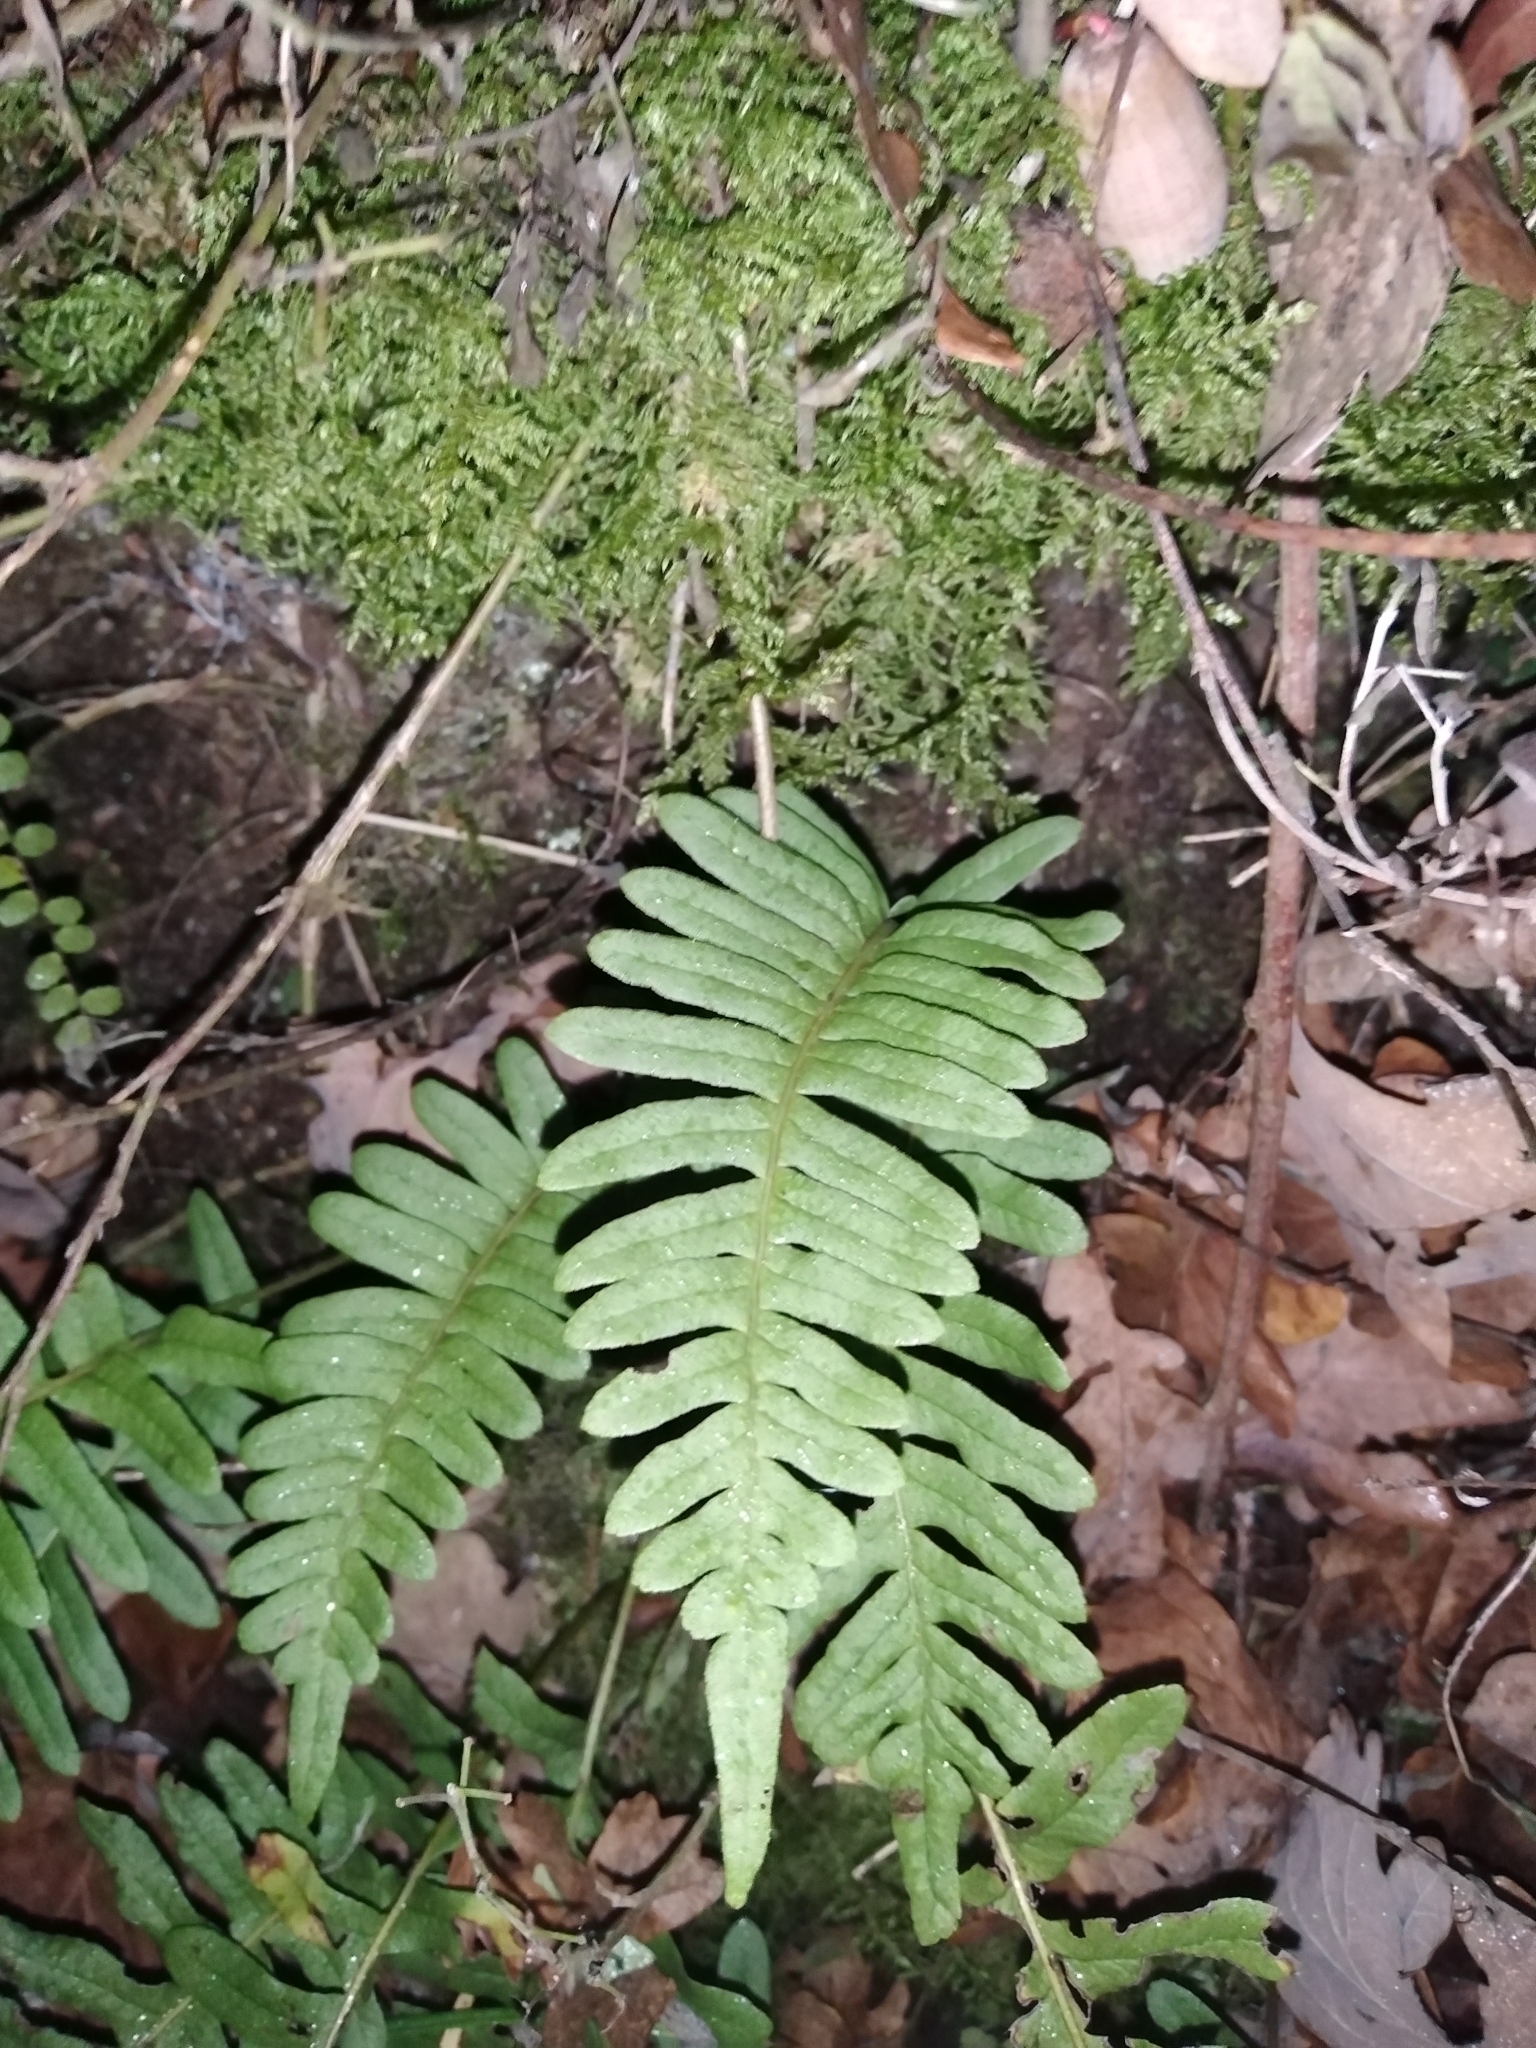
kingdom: Plantae
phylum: Tracheophyta
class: Polypodiopsida
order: Polypodiales
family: Polypodiaceae
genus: Polypodium
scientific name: Polypodium vulgare
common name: Common polypody
